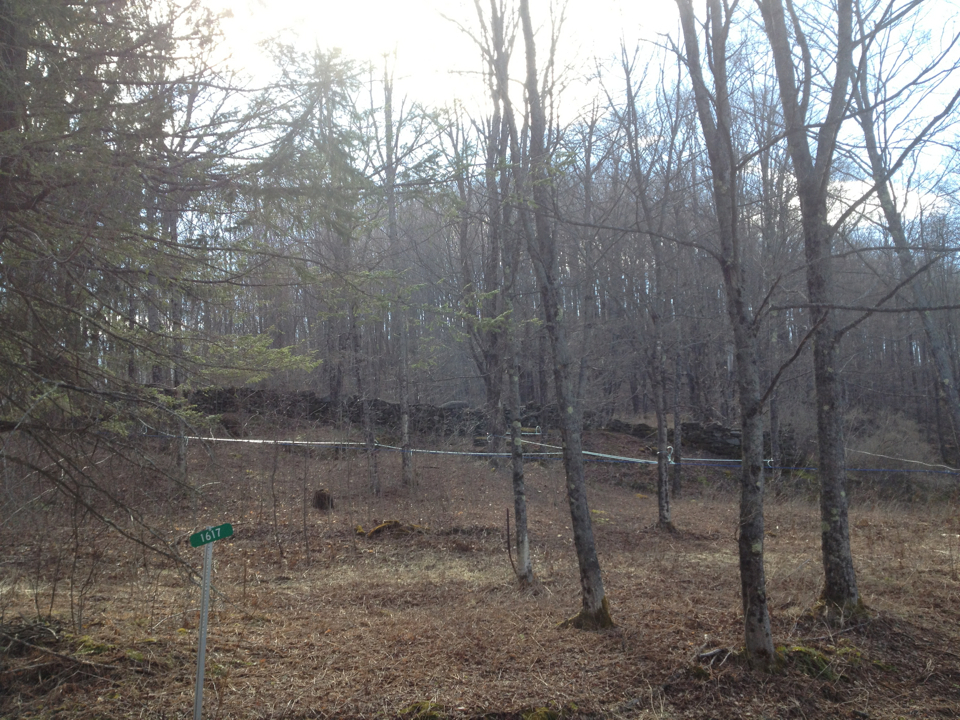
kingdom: Plantae
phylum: Tracheophyta
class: Magnoliopsida
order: Sapindales
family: Sapindaceae
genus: Acer
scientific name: Acer saccharum
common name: Sugar maple
